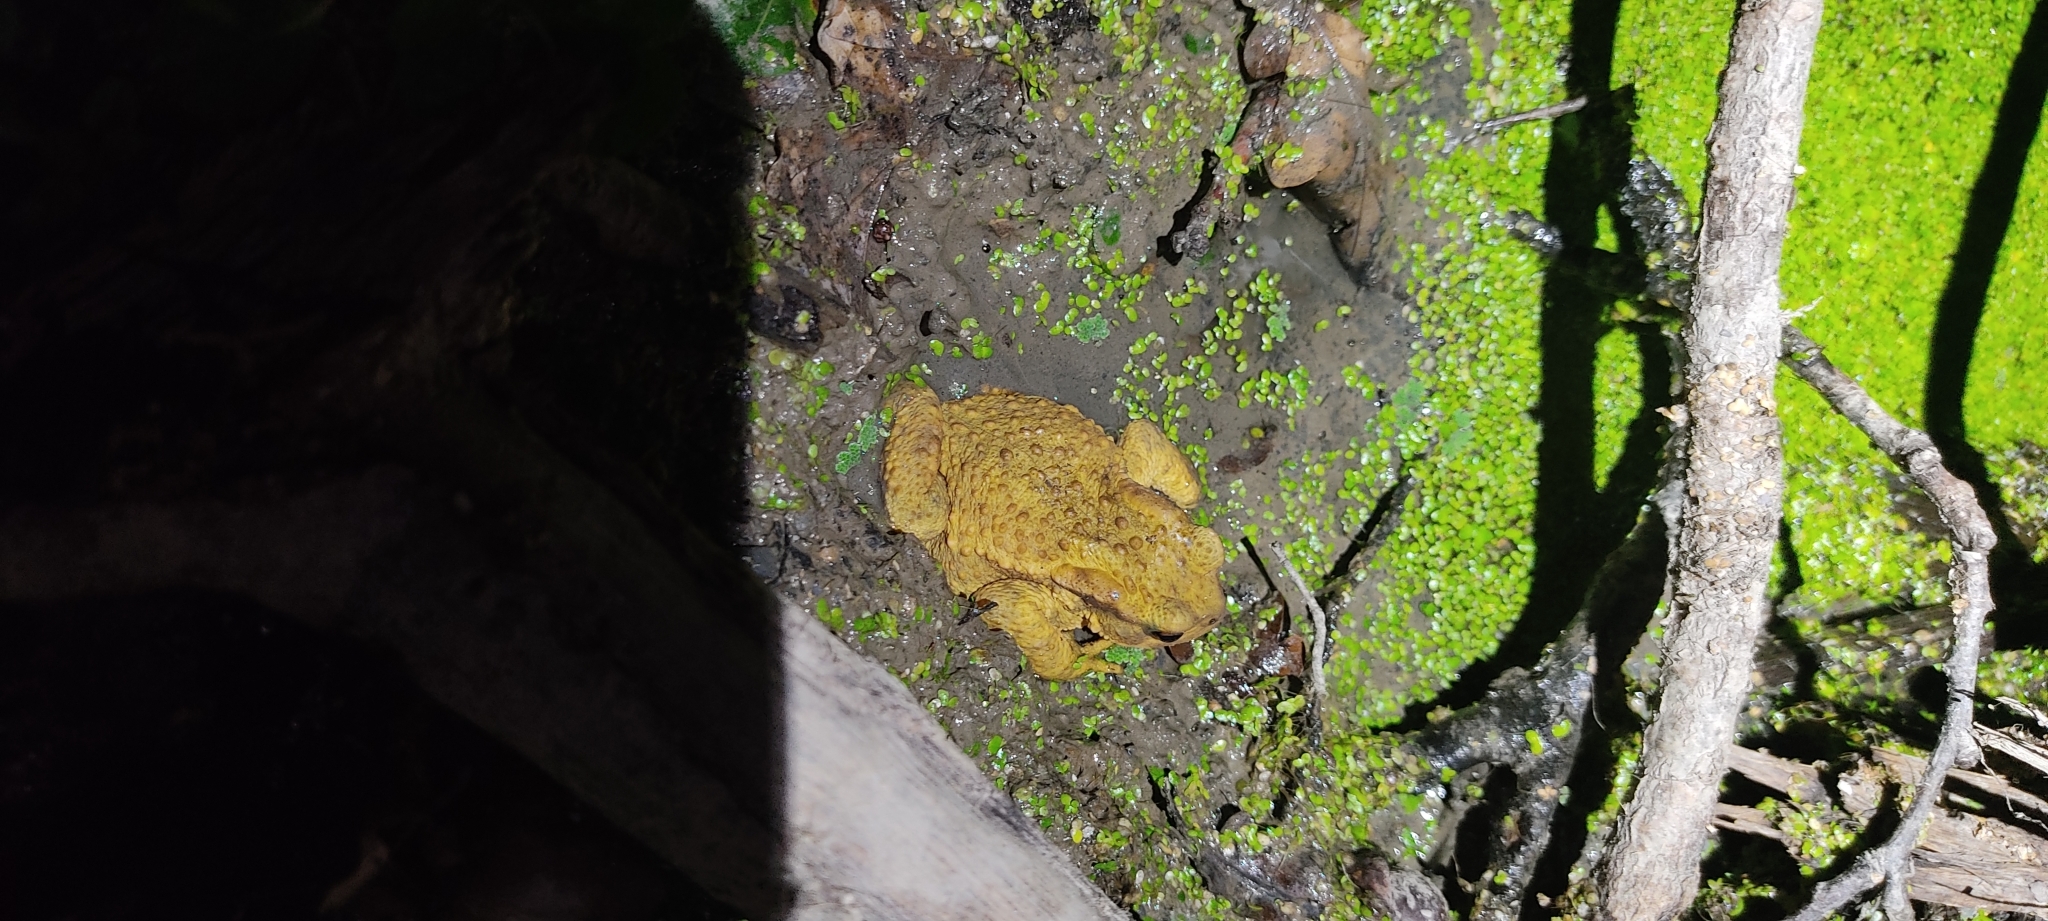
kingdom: Animalia
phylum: Chordata
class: Amphibia
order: Anura
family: Bufonidae
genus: Bufo
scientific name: Bufo spinosus
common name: Western common toad
